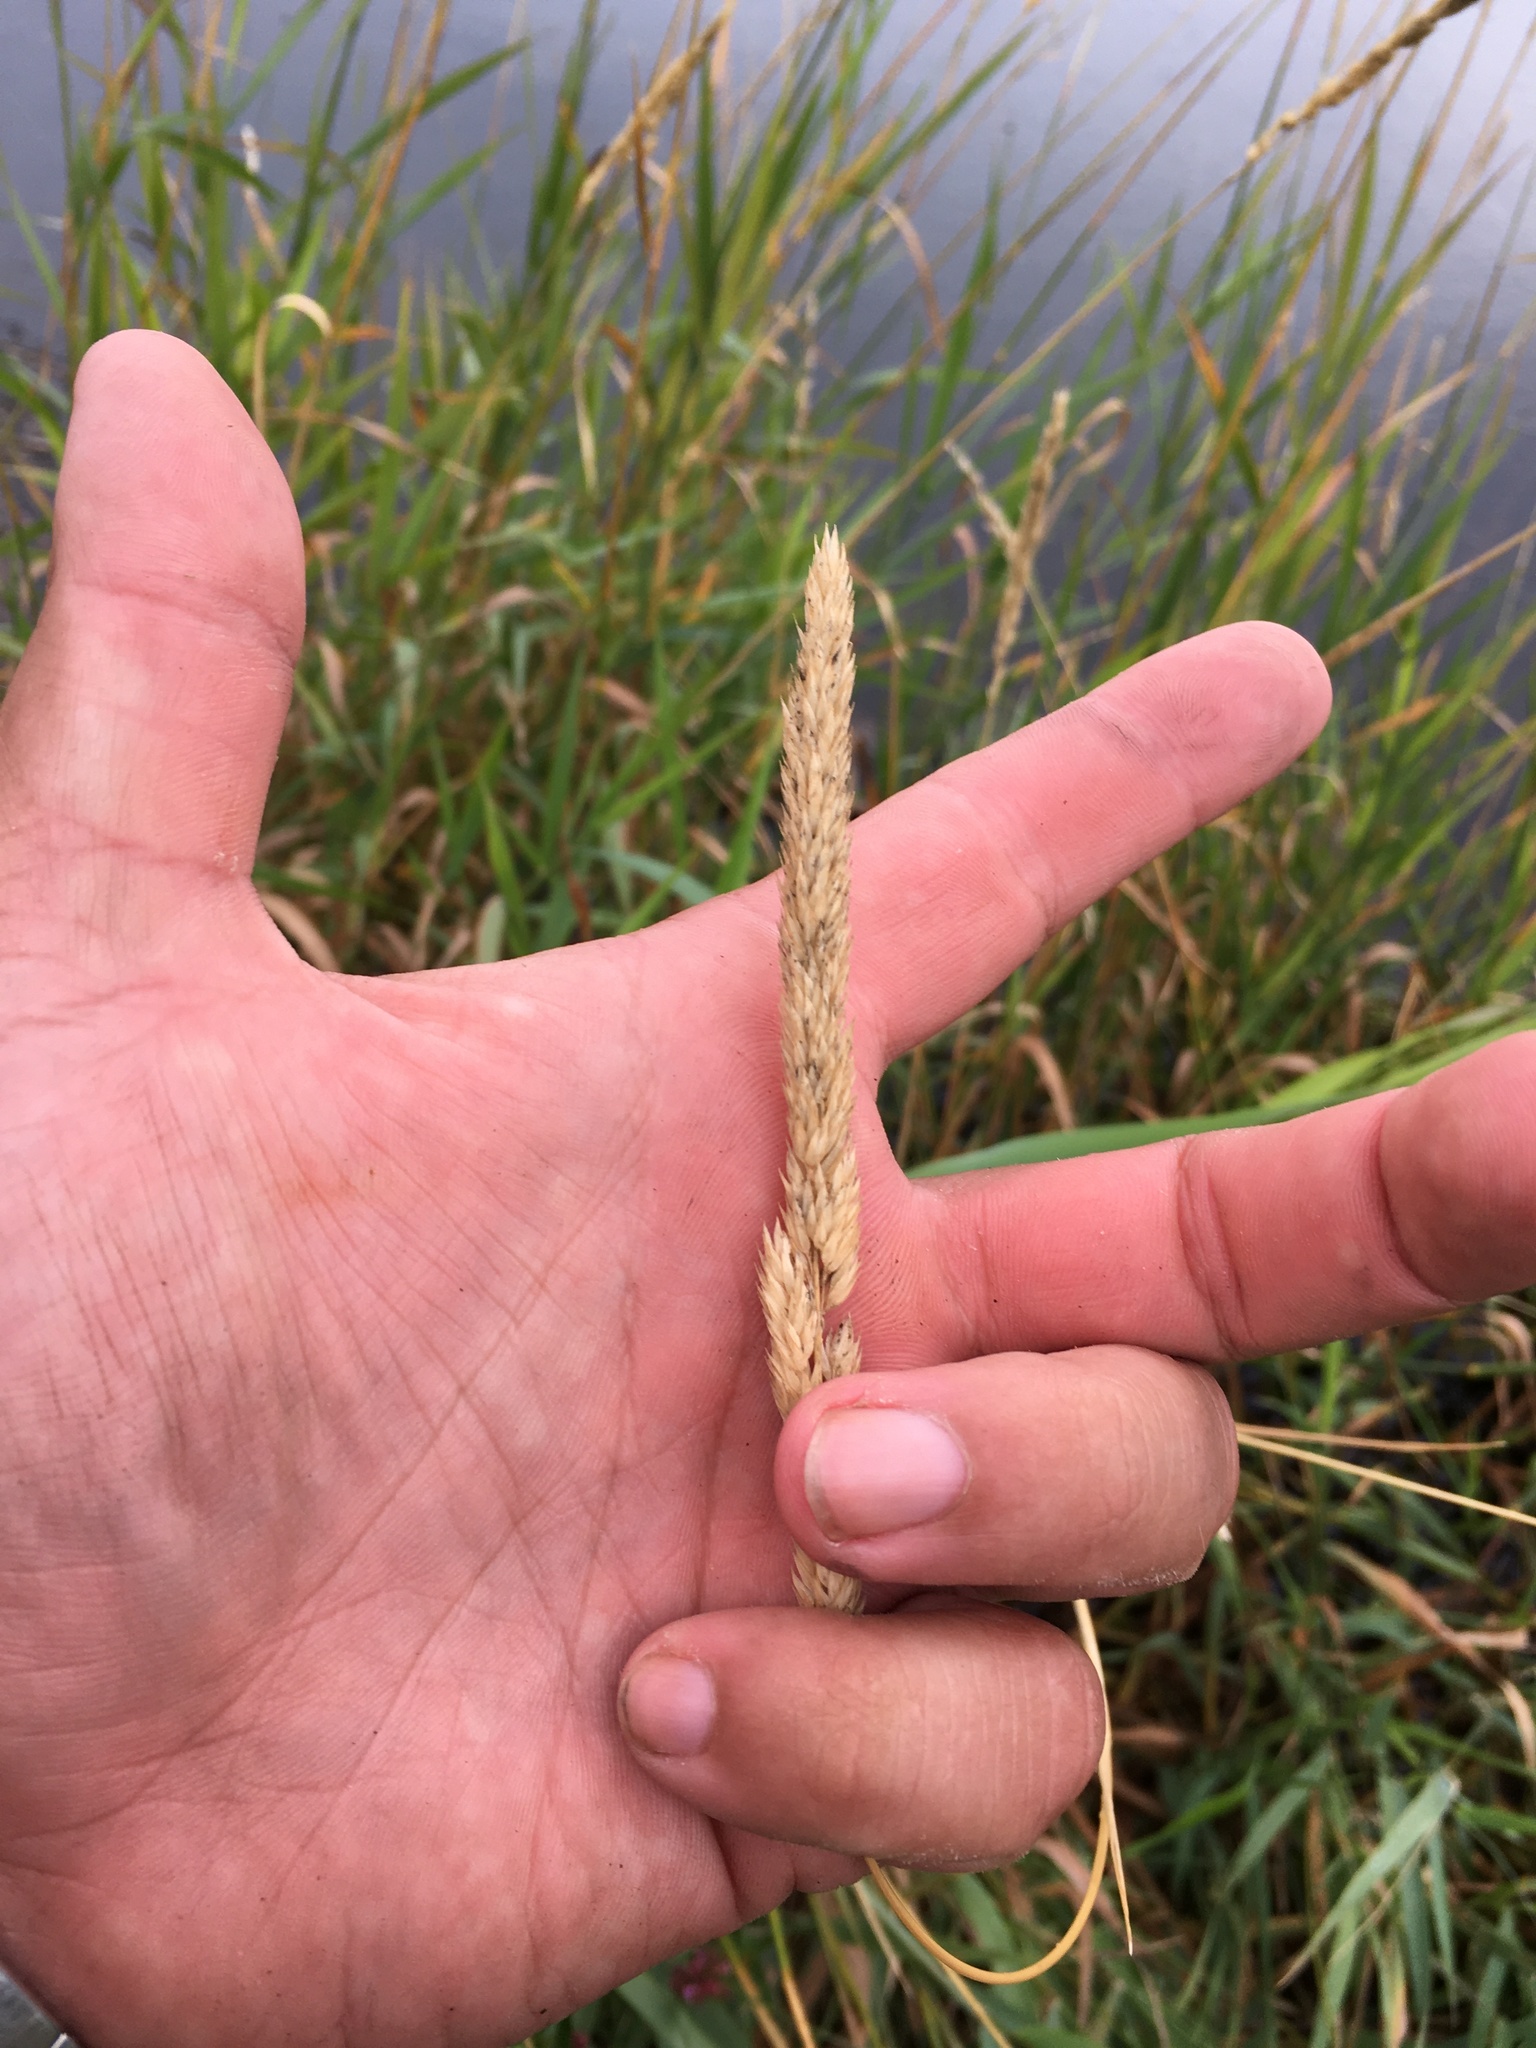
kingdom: Plantae
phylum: Tracheophyta
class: Liliopsida
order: Poales
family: Poaceae
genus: Phalaris
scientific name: Phalaris arundinacea
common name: Reed canary-grass
